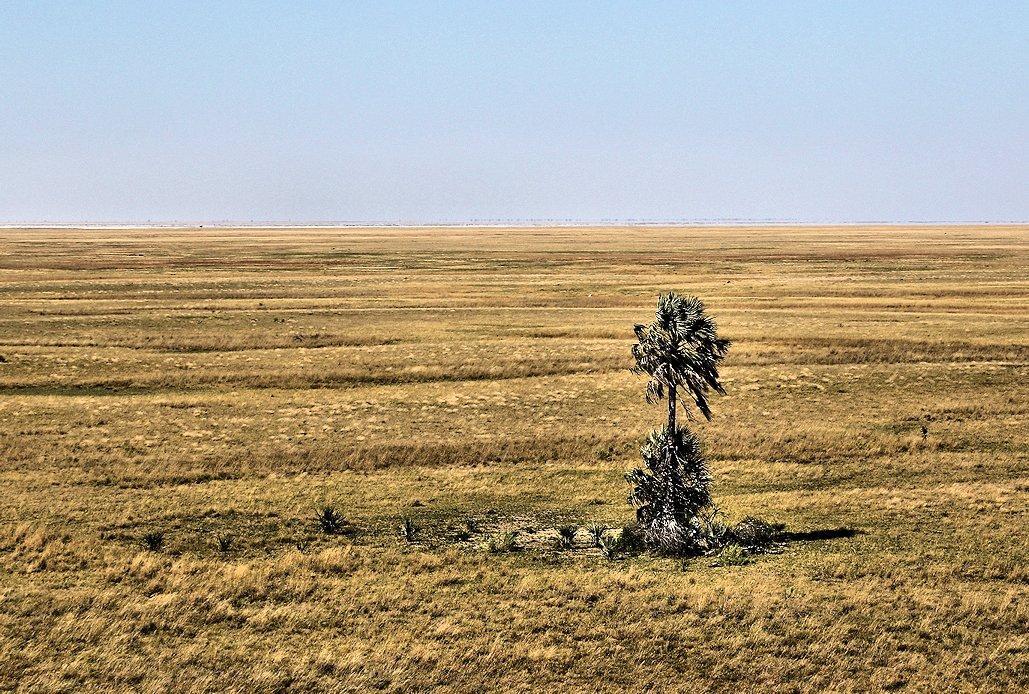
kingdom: Plantae
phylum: Tracheophyta
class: Liliopsida
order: Arecales
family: Arecaceae
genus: Hyphaene
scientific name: Hyphaene petersiana
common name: African ivory nut palm
